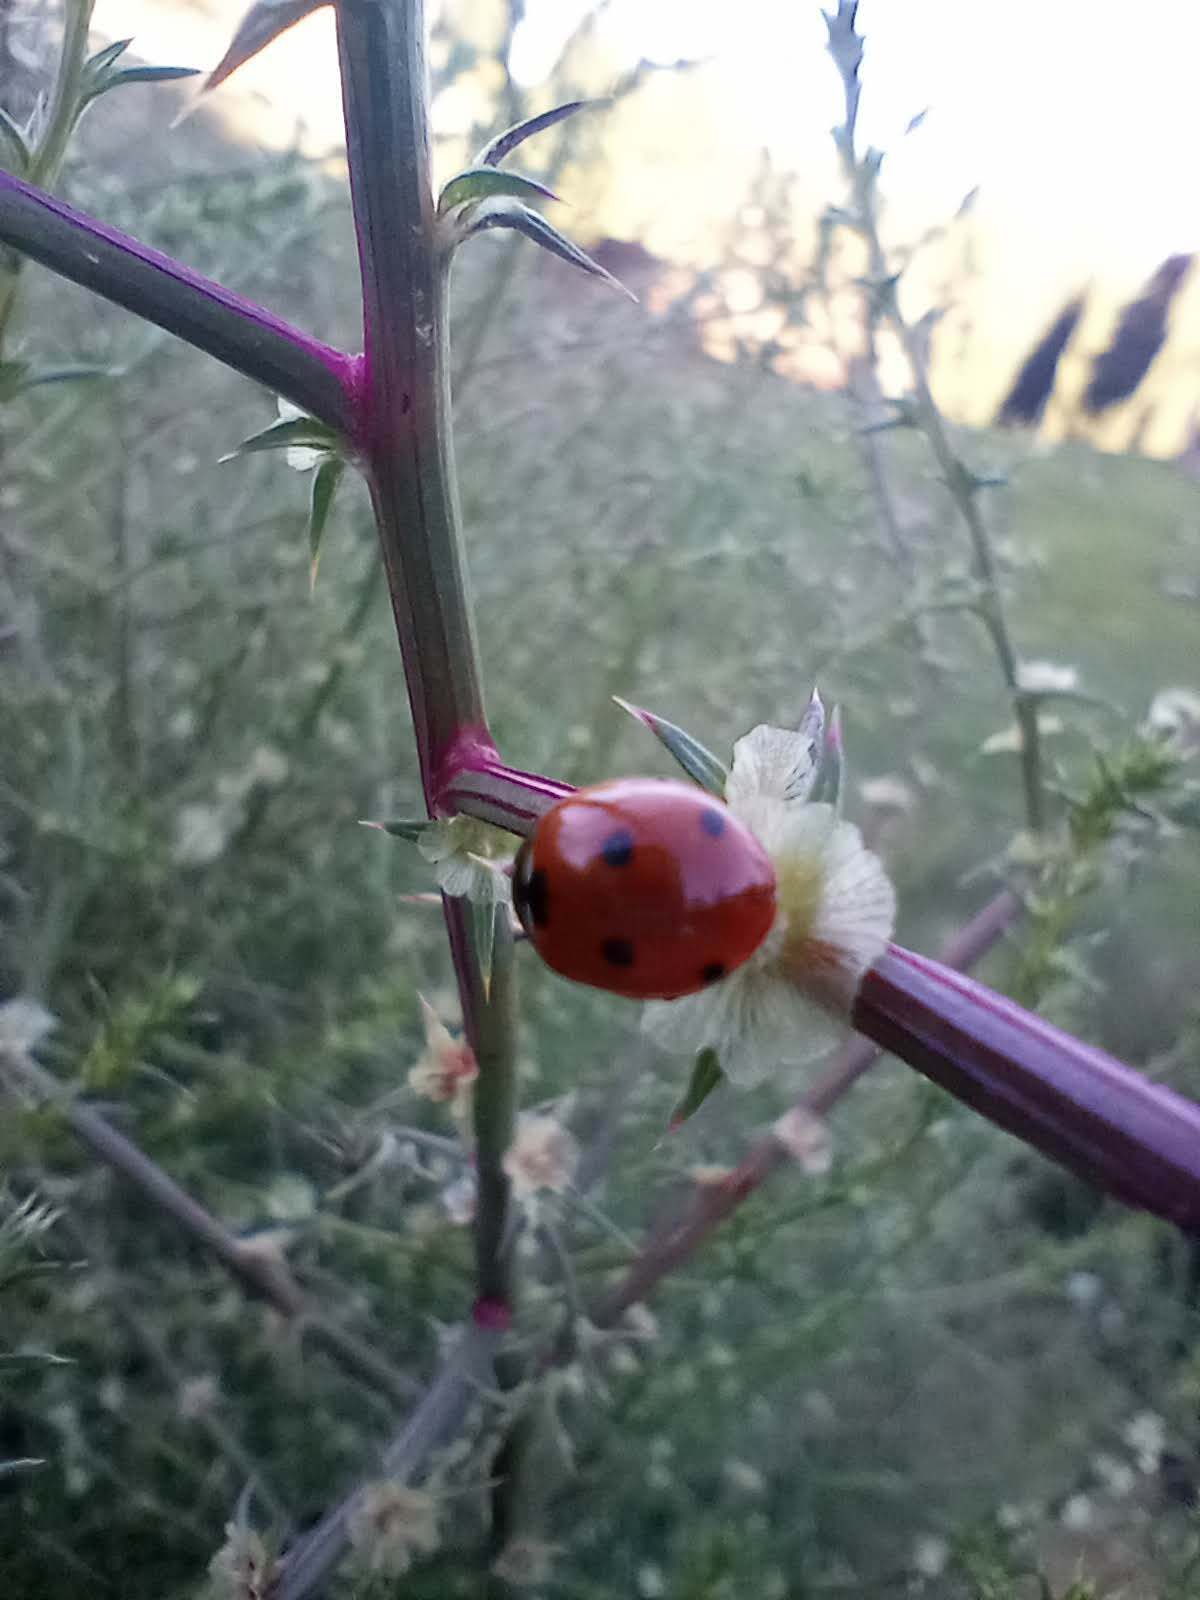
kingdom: Animalia
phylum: Arthropoda
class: Insecta
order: Coleoptera
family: Coccinellidae
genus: Coccinella
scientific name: Coccinella septempunctata
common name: Sevenspotted lady beetle
